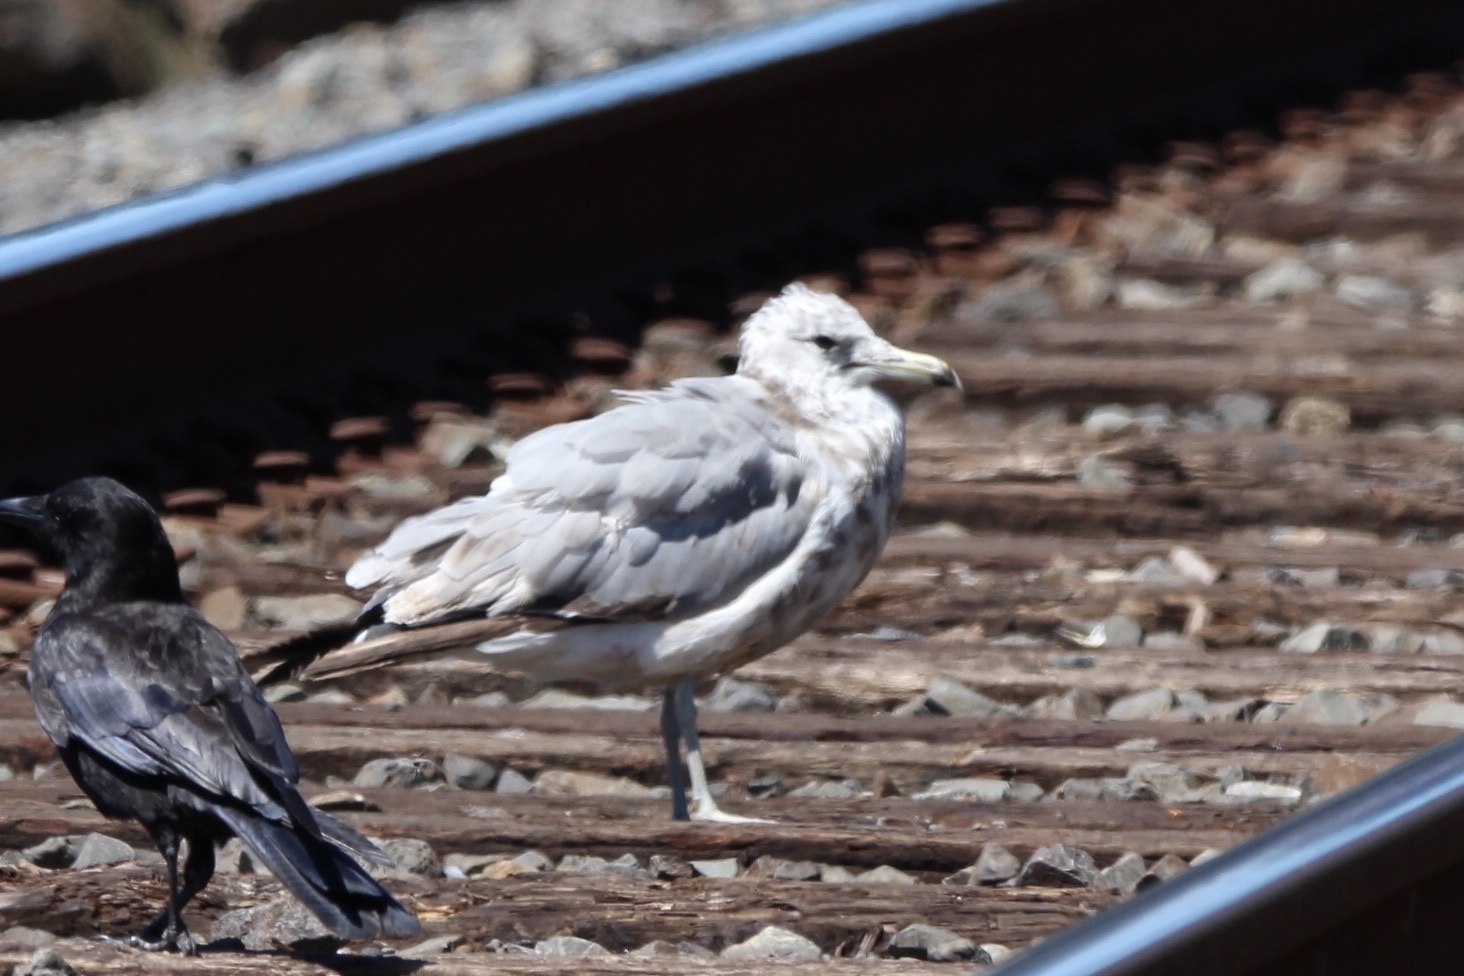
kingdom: Animalia
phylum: Chordata
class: Aves
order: Charadriiformes
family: Laridae
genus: Larus
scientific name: Larus californicus
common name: California gull
